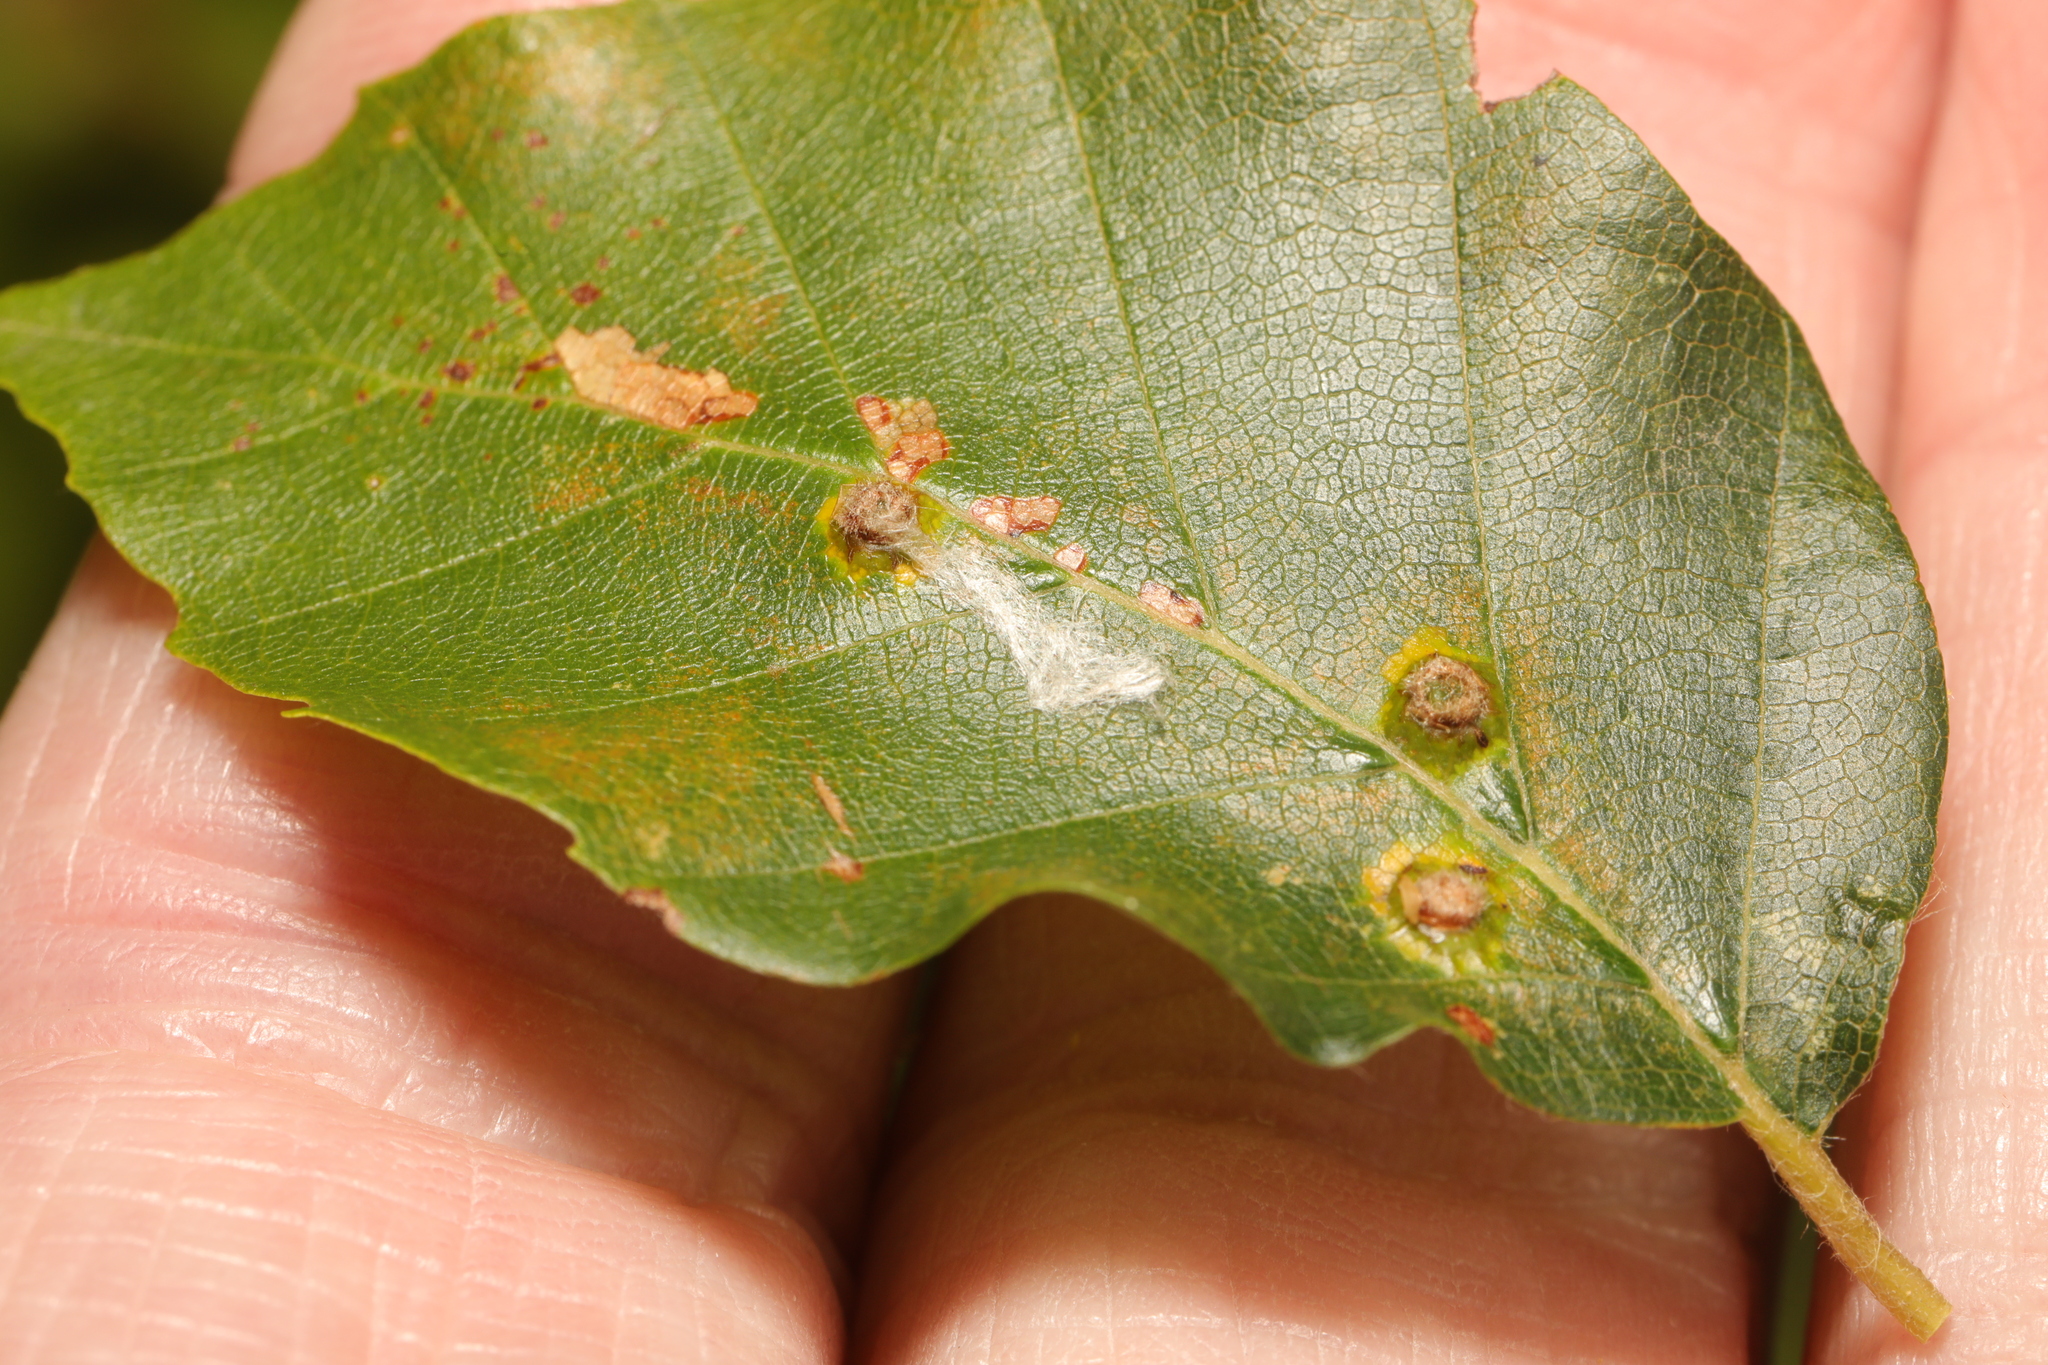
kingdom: Animalia
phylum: Arthropoda
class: Insecta
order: Diptera
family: Cecidomyiidae
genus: Hartigiola
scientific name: Hartigiola annulipes
